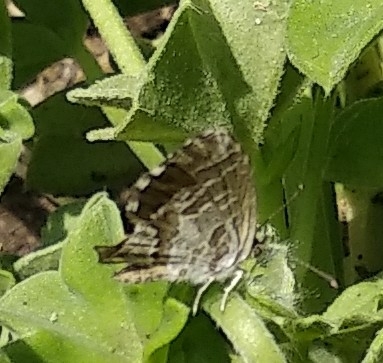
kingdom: Animalia
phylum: Arthropoda
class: Insecta
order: Lepidoptera
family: Lycaenidae
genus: Cacyreus
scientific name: Cacyreus marshalli
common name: Geranium bronze
